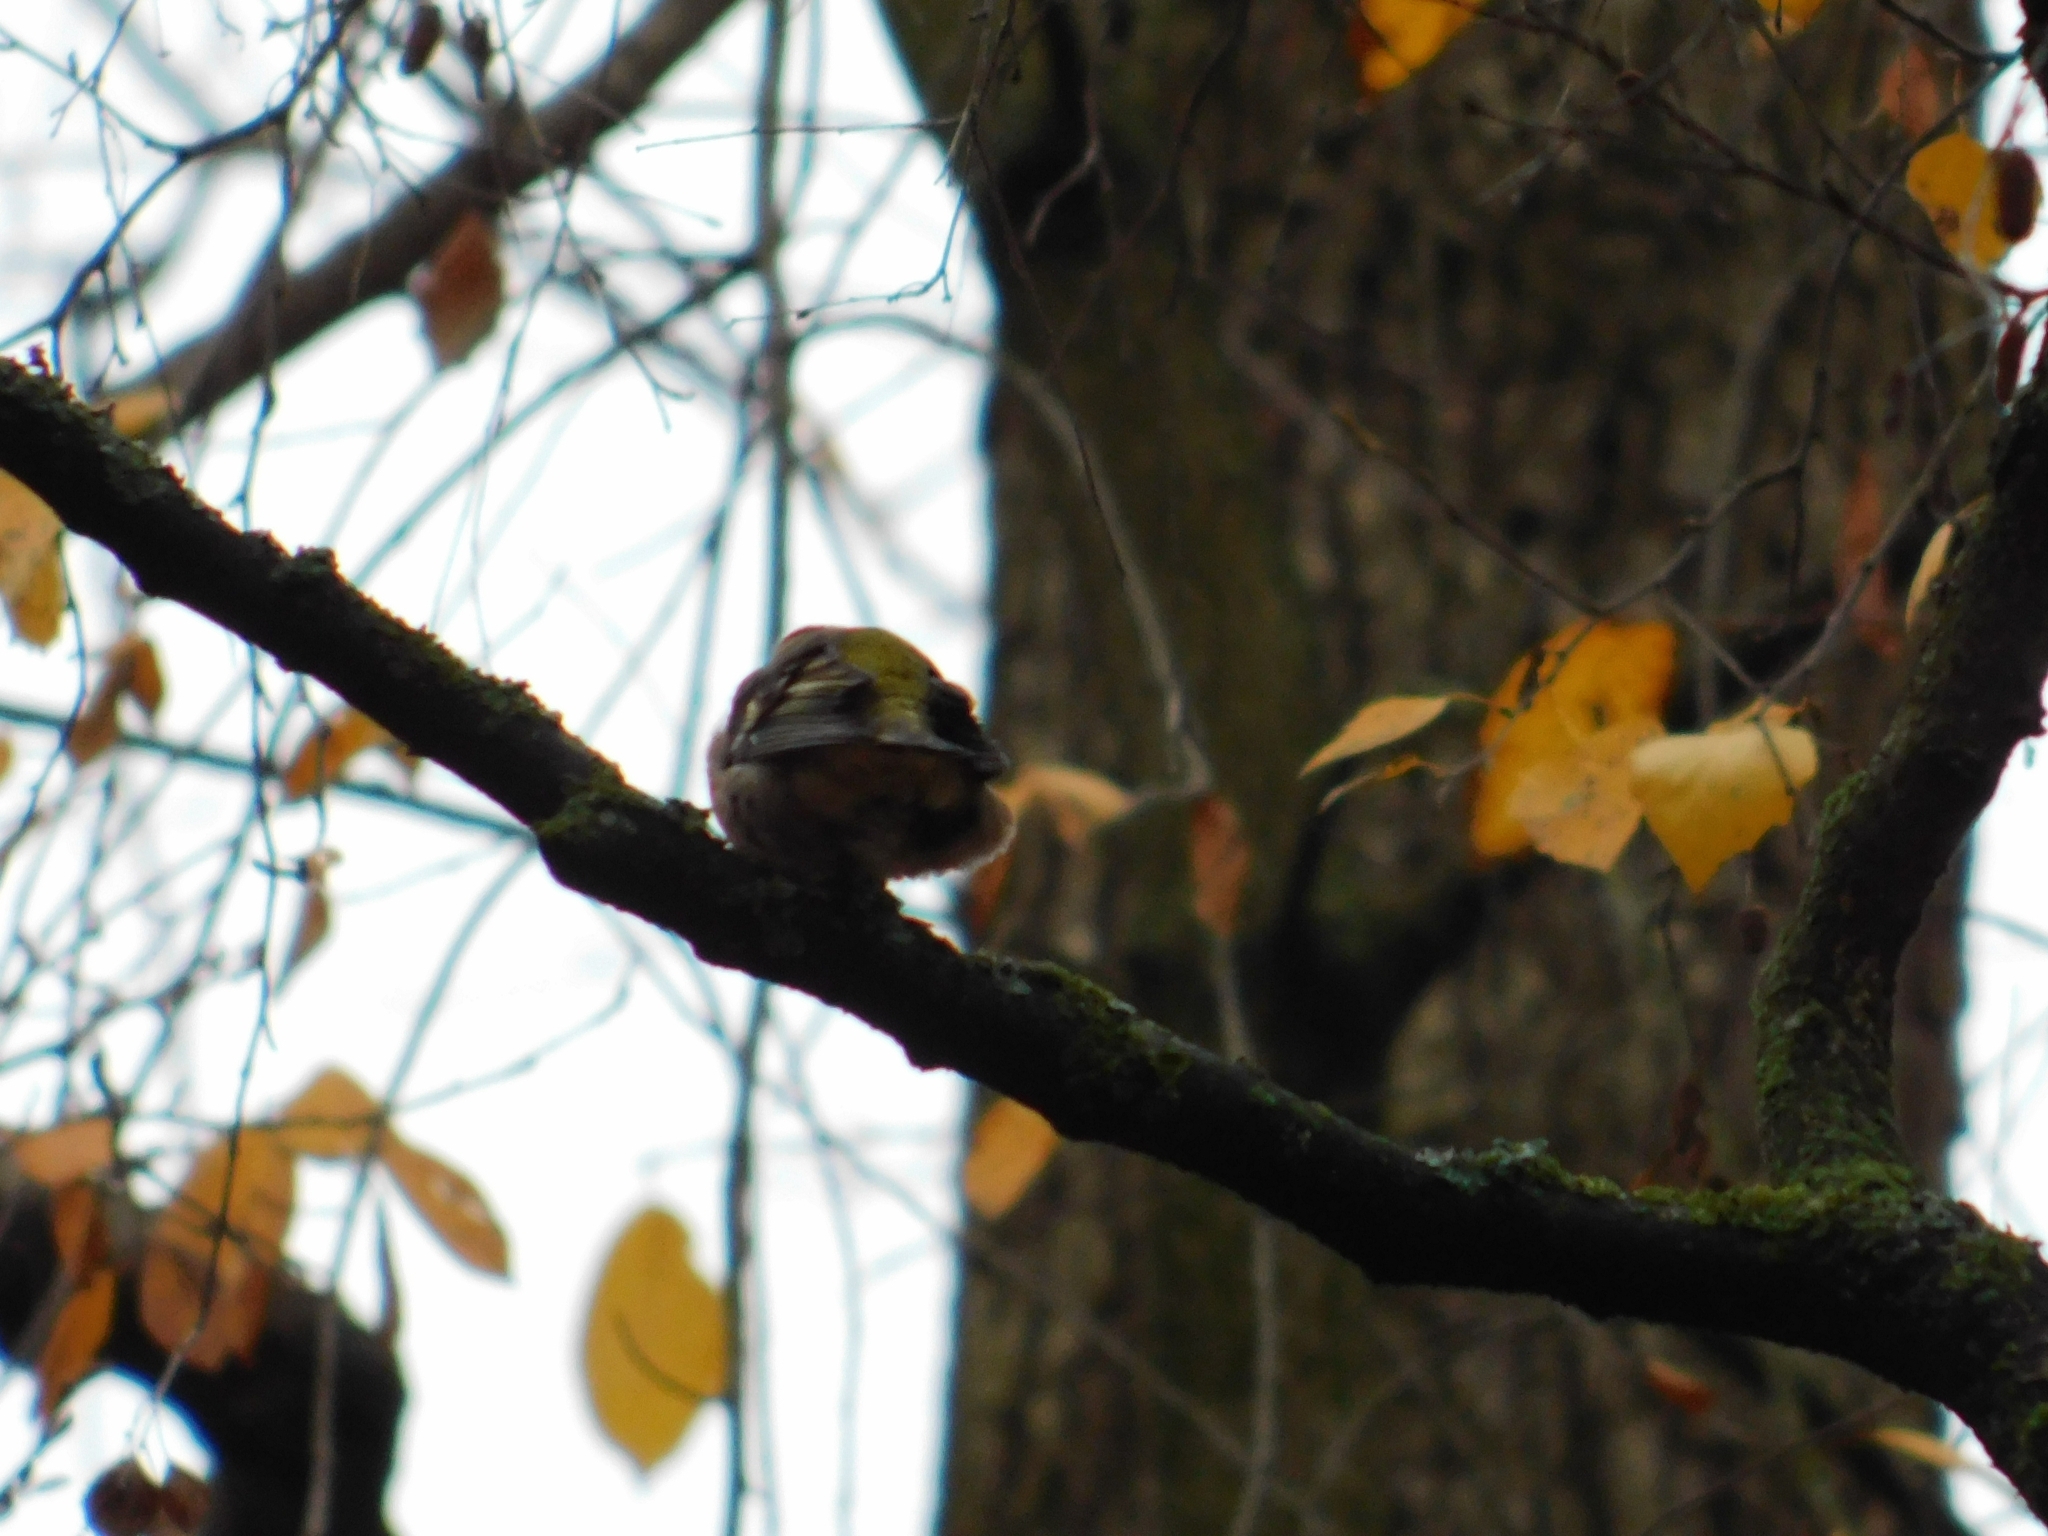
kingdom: Animalia
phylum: Chordata
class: Aves
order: Passeriformes
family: Fringillidae
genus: Fringilla
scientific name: Fringilla coelebs
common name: Common chaffinch
